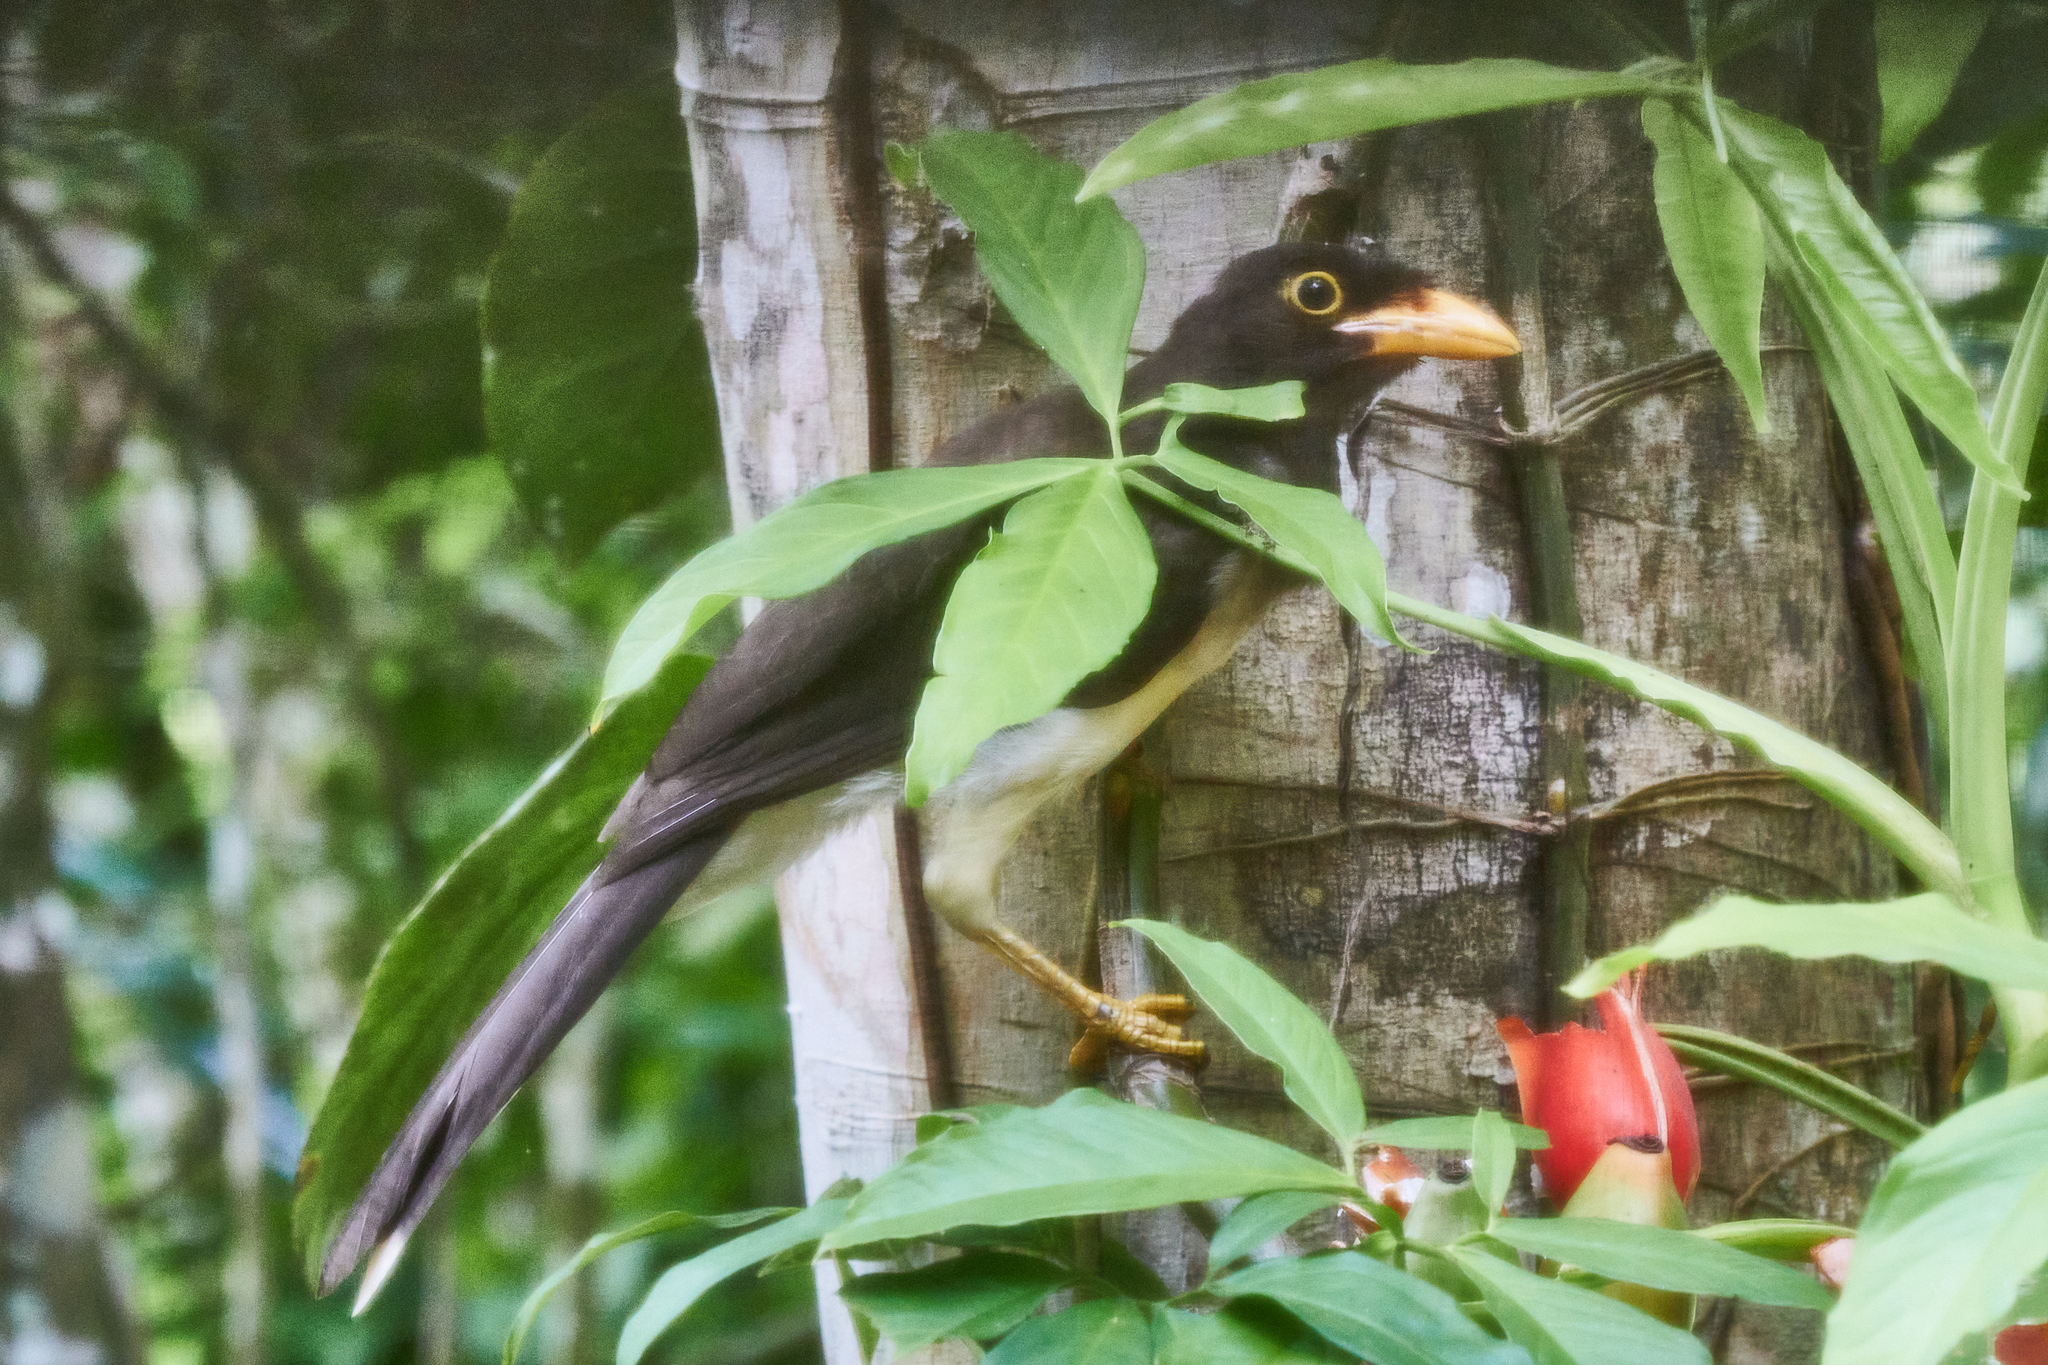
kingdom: Animalia
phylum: Chordata
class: Aves
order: Passeriformes
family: Corvidae
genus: Psilorhinus
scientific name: Psilorhinus morio
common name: Brown jay
